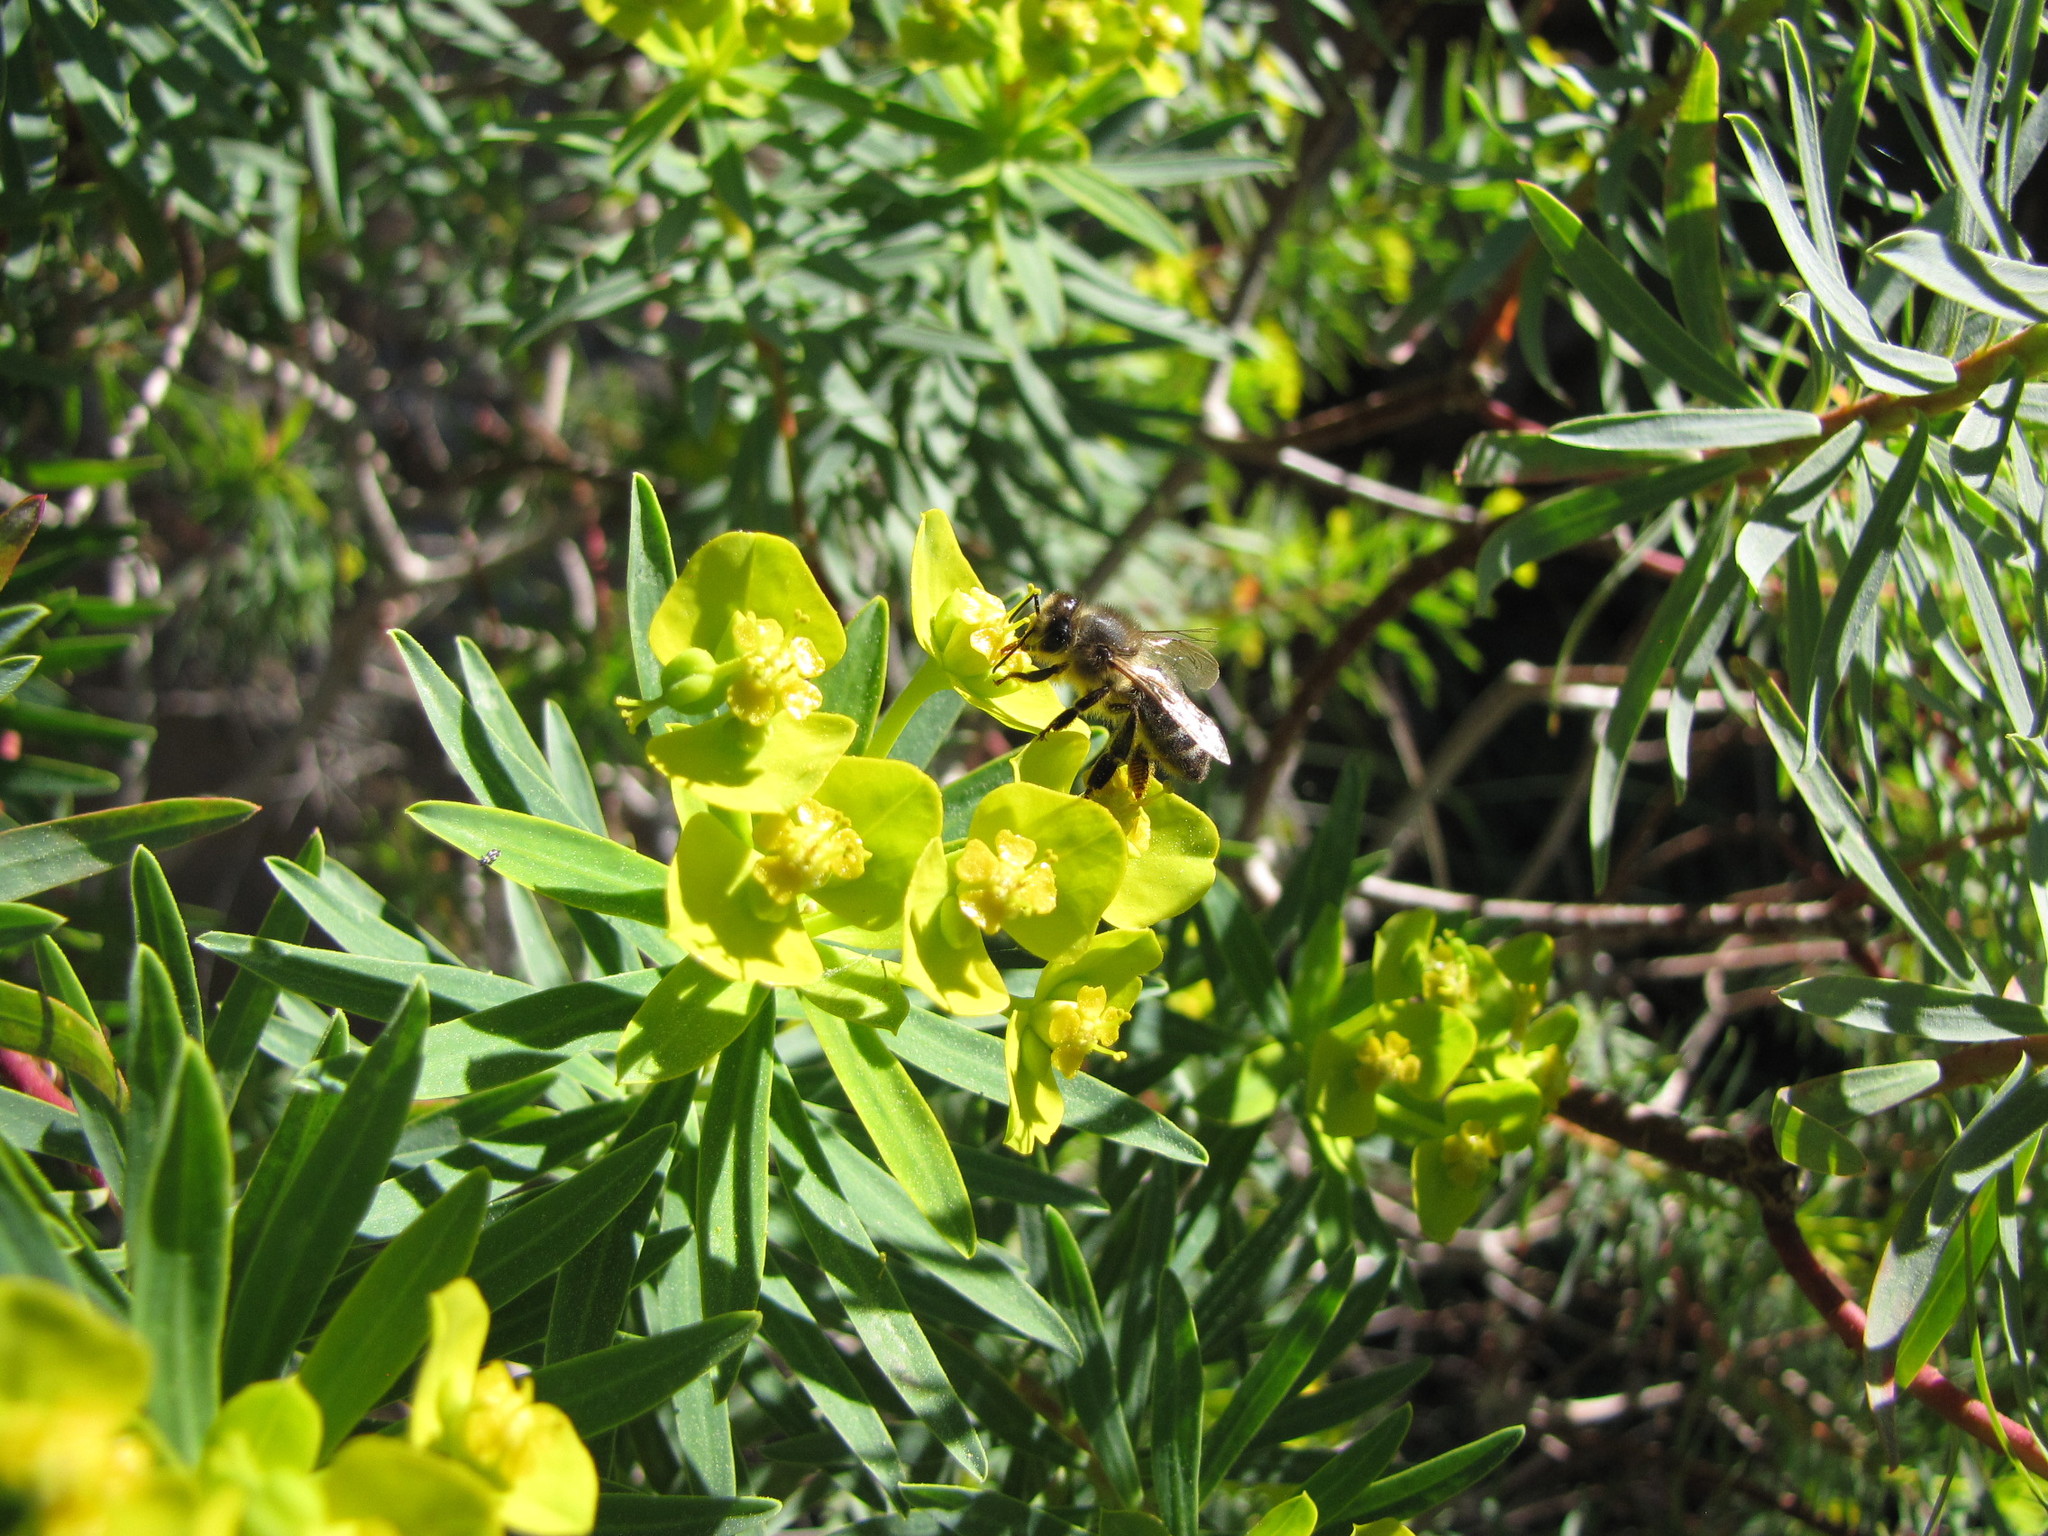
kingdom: Plantae
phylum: Tracheophyta
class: Magnoliopsida
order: Malpighiales
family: Euphorbiaceae
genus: Euphorbia
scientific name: Euphorbia dendroides
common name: Tree spurge
